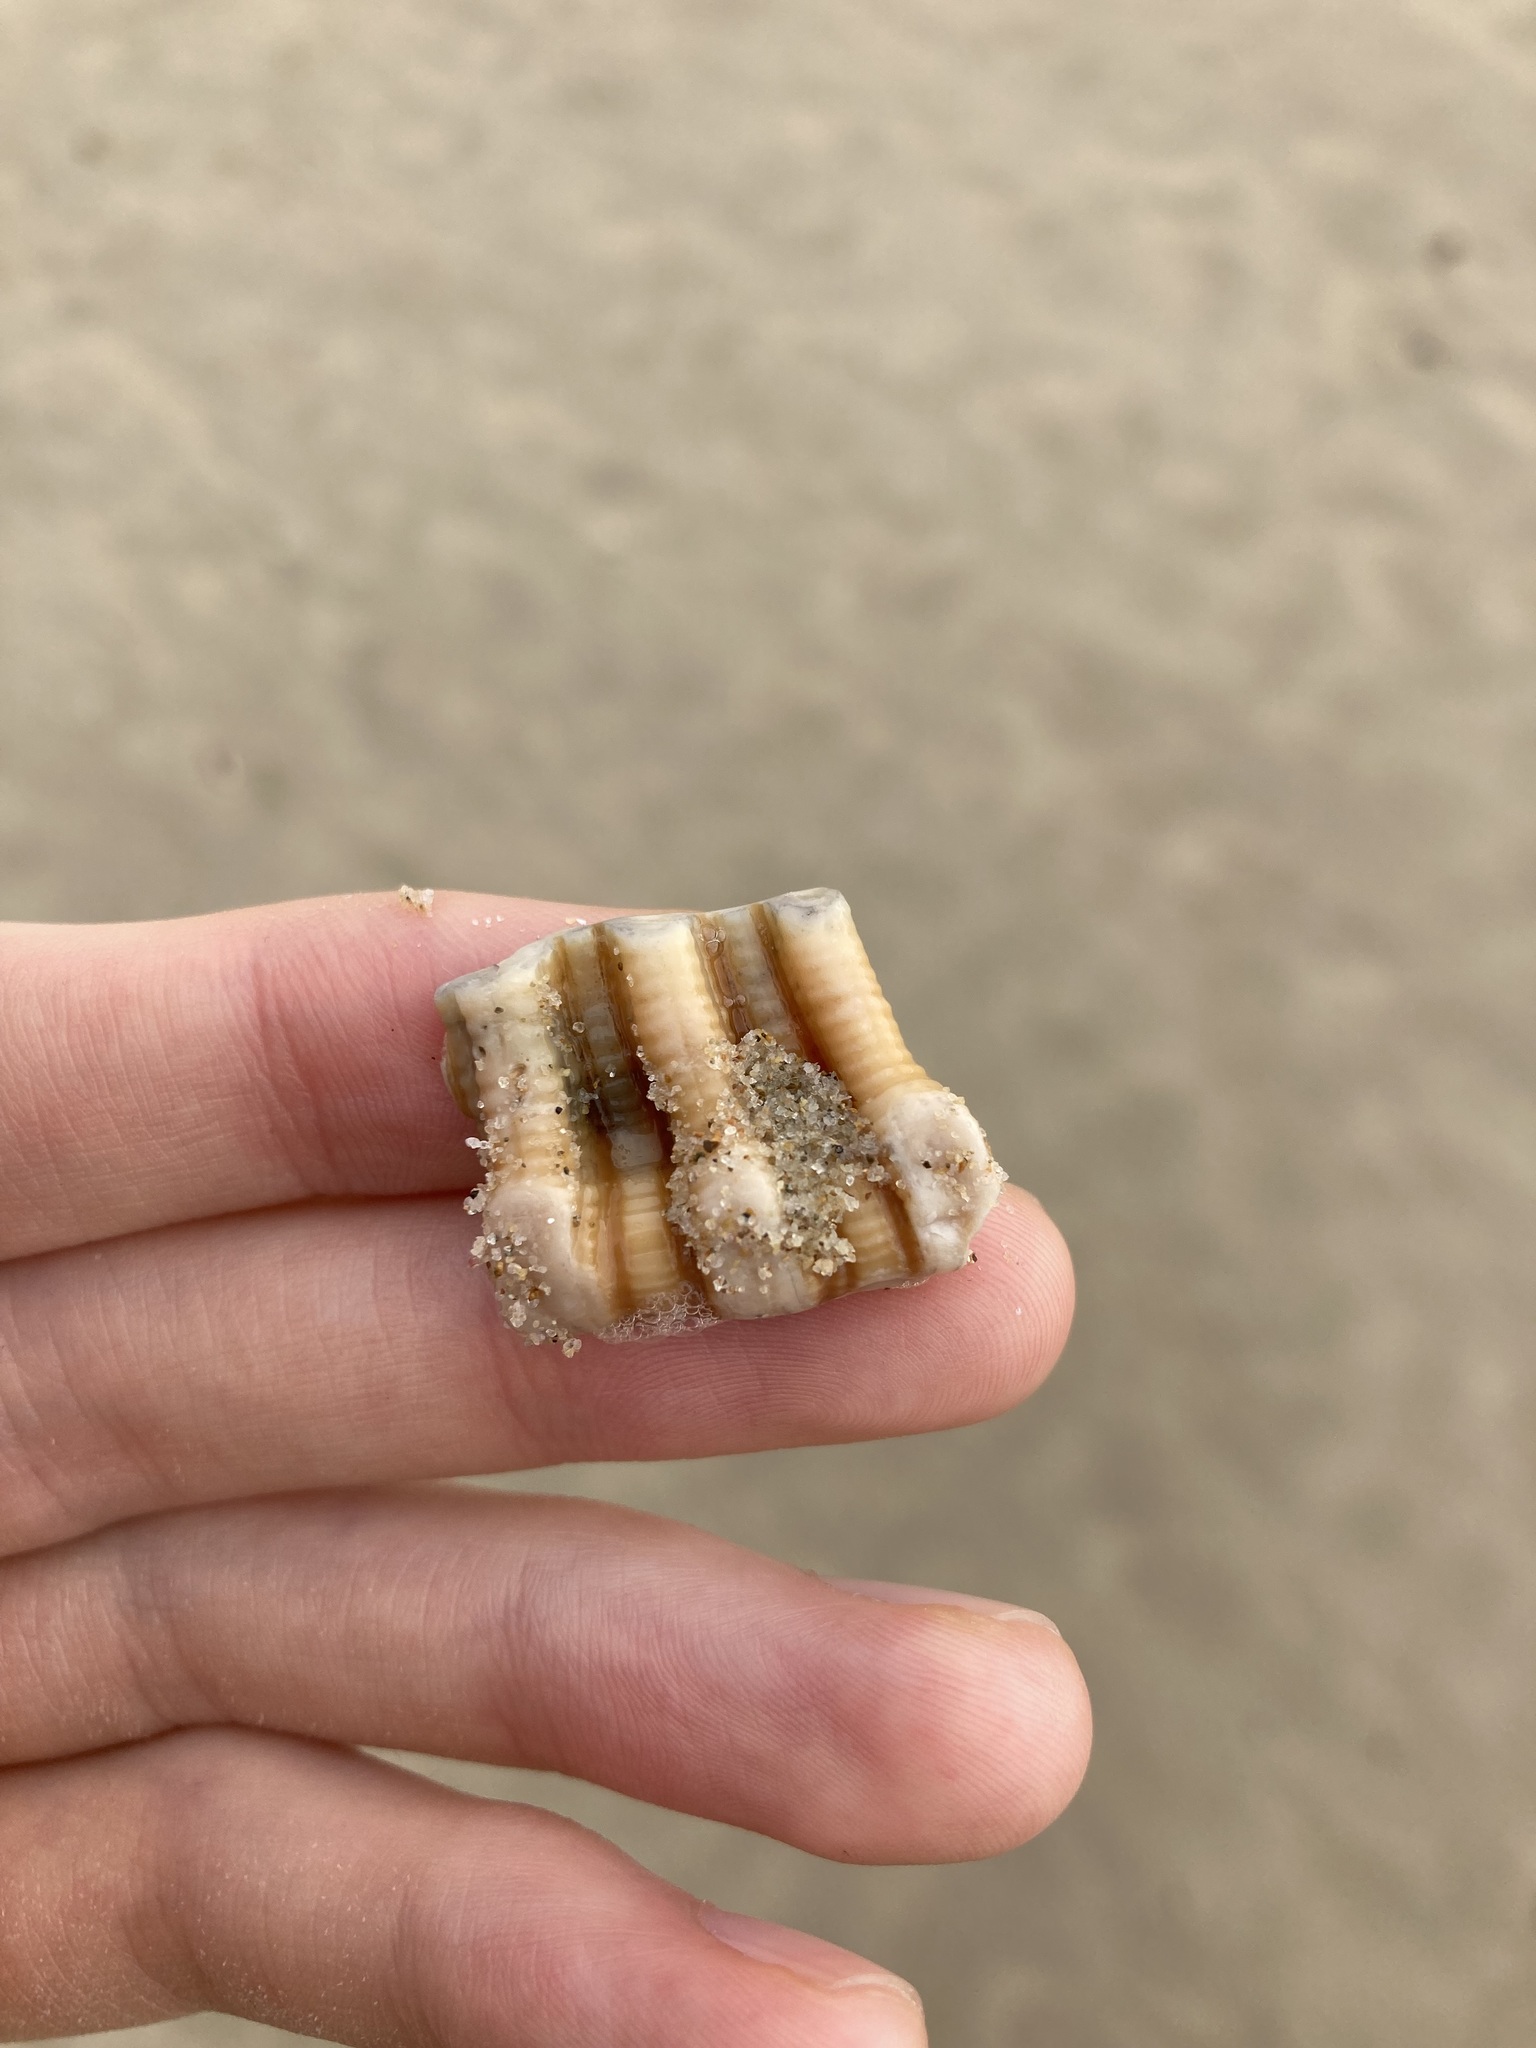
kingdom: Animalia
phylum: Mollusca
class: Gastropoda
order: Littorinimorpha
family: Cymatiidae
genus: Cabestana
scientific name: Cabestana spengleri
